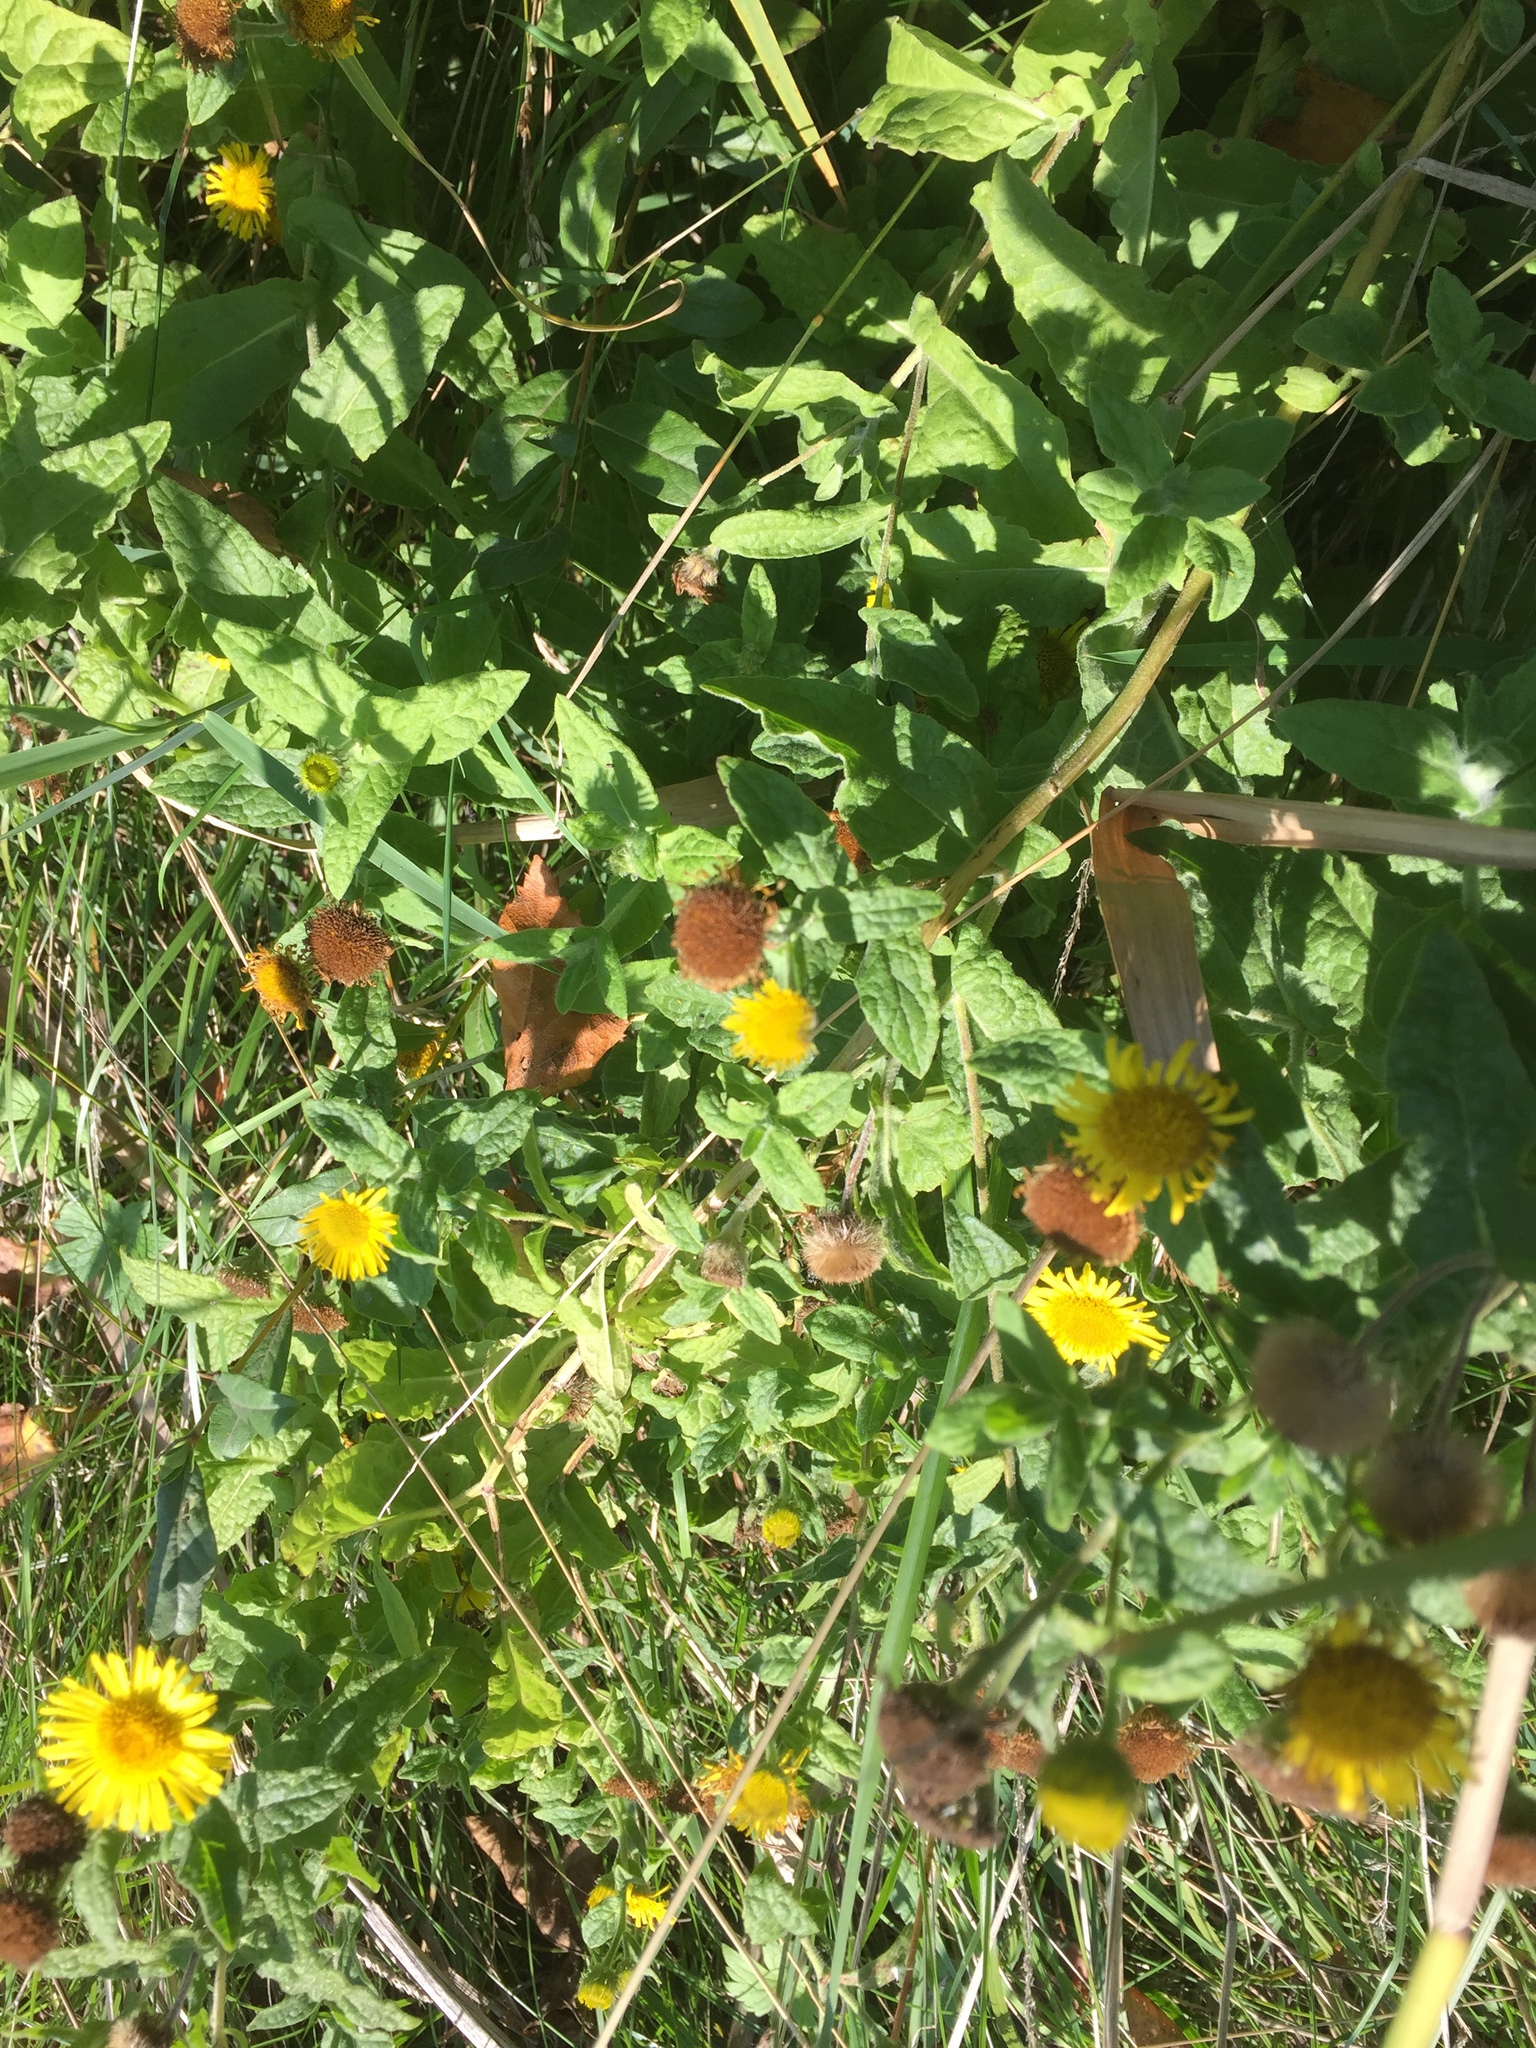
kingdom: Plantae
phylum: Tracheophyta
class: Magnoliopsida
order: Asterales
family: Asteraceae
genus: Pulicaria
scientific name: Pulicaria dysenterica
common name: Common fleabane
